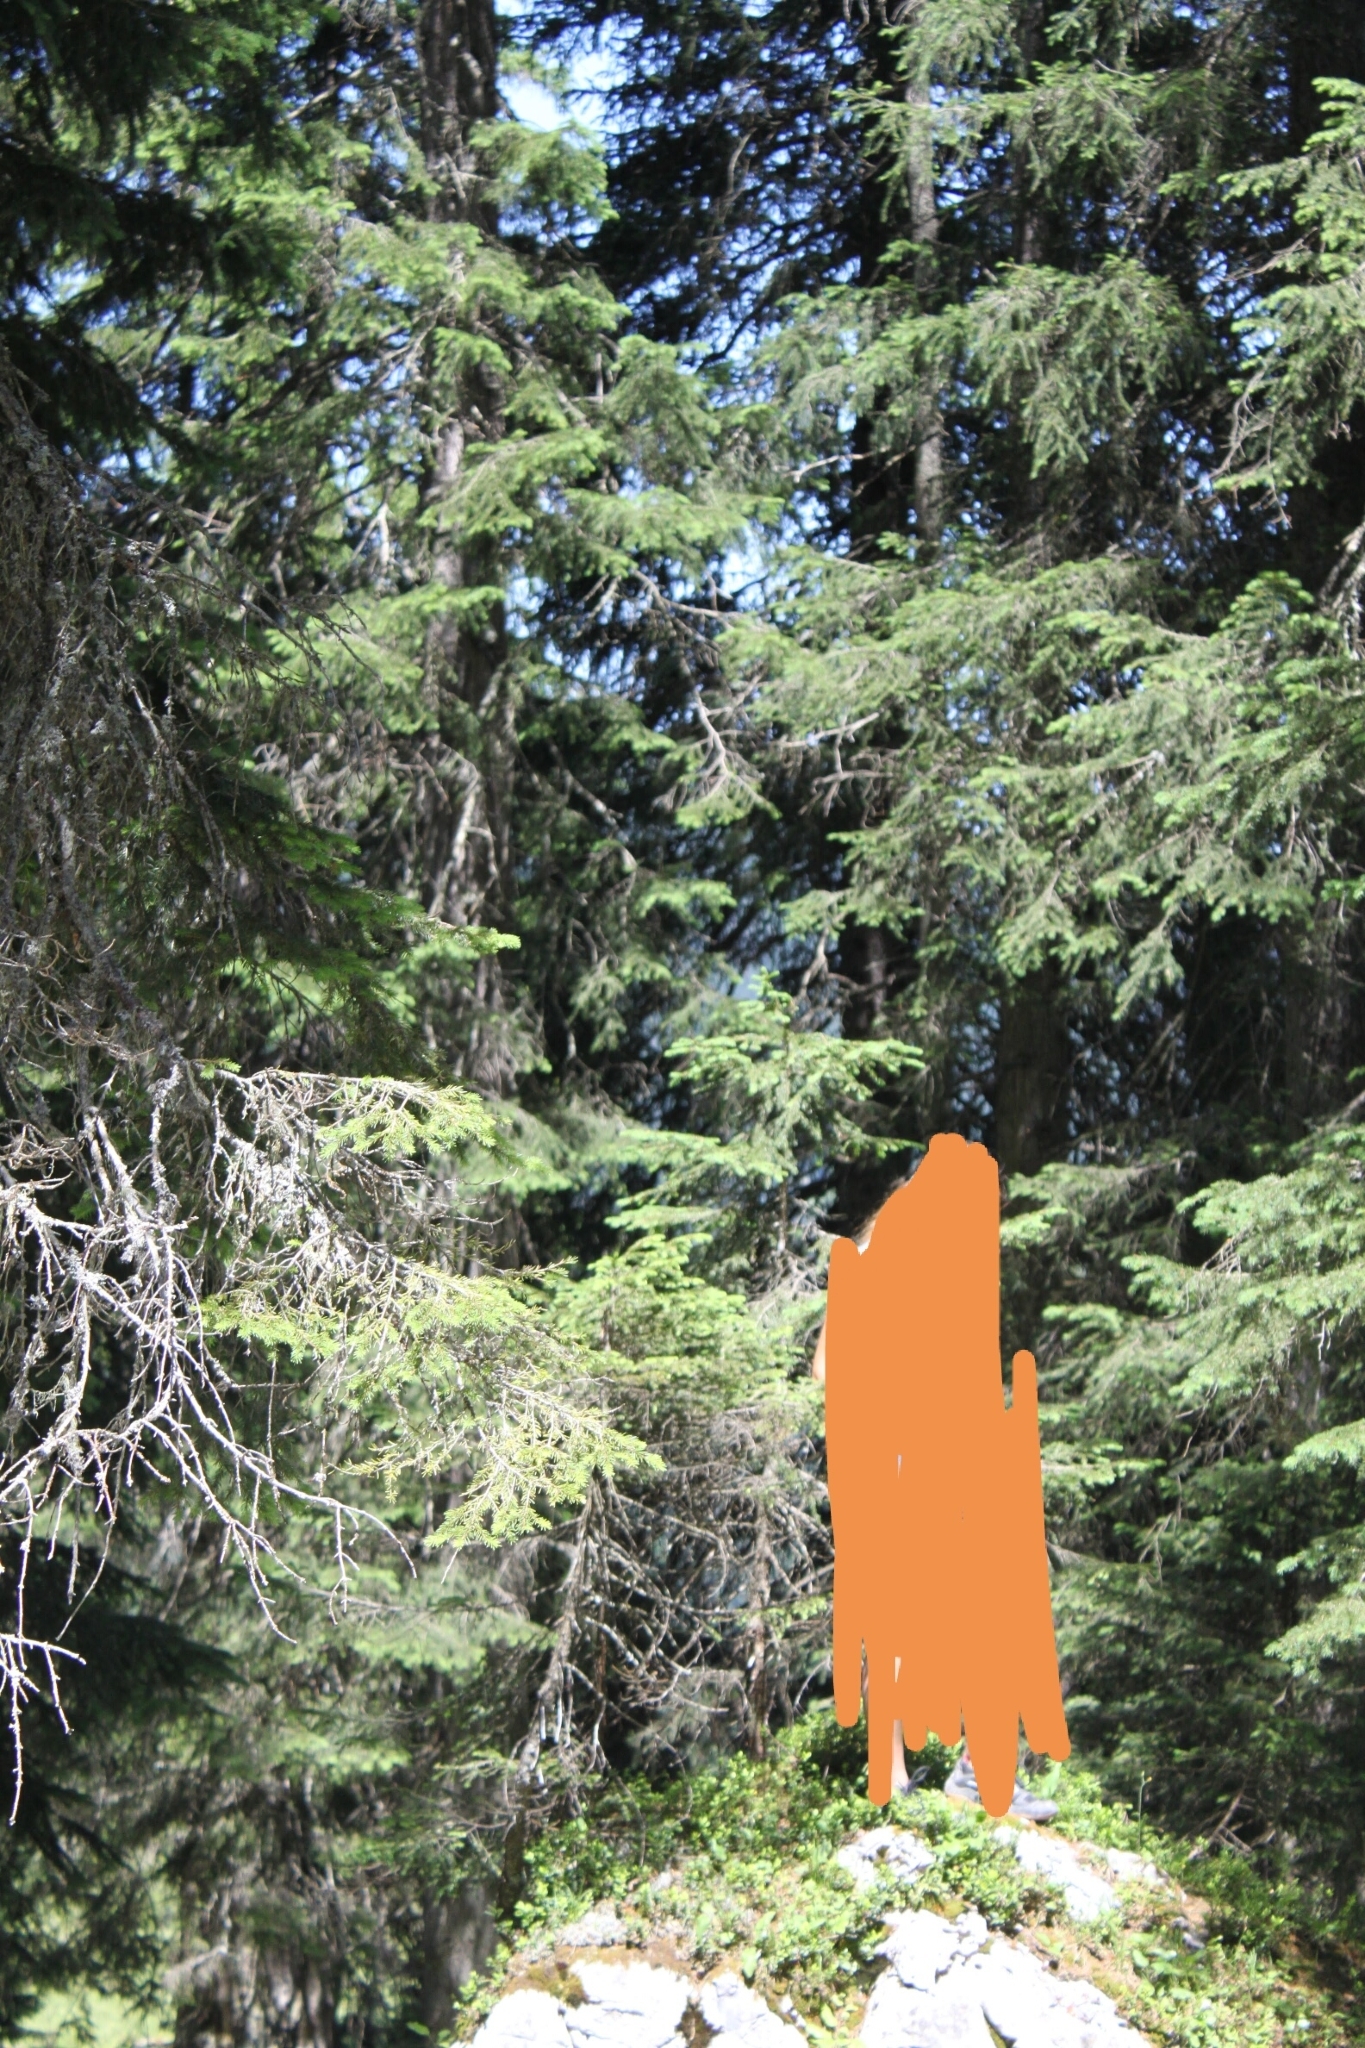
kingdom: Plantae
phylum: Tracheophyta
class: Pinopsida
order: Pinales
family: Pinaceae
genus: Picea
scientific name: Picea abies
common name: Norway spruce
